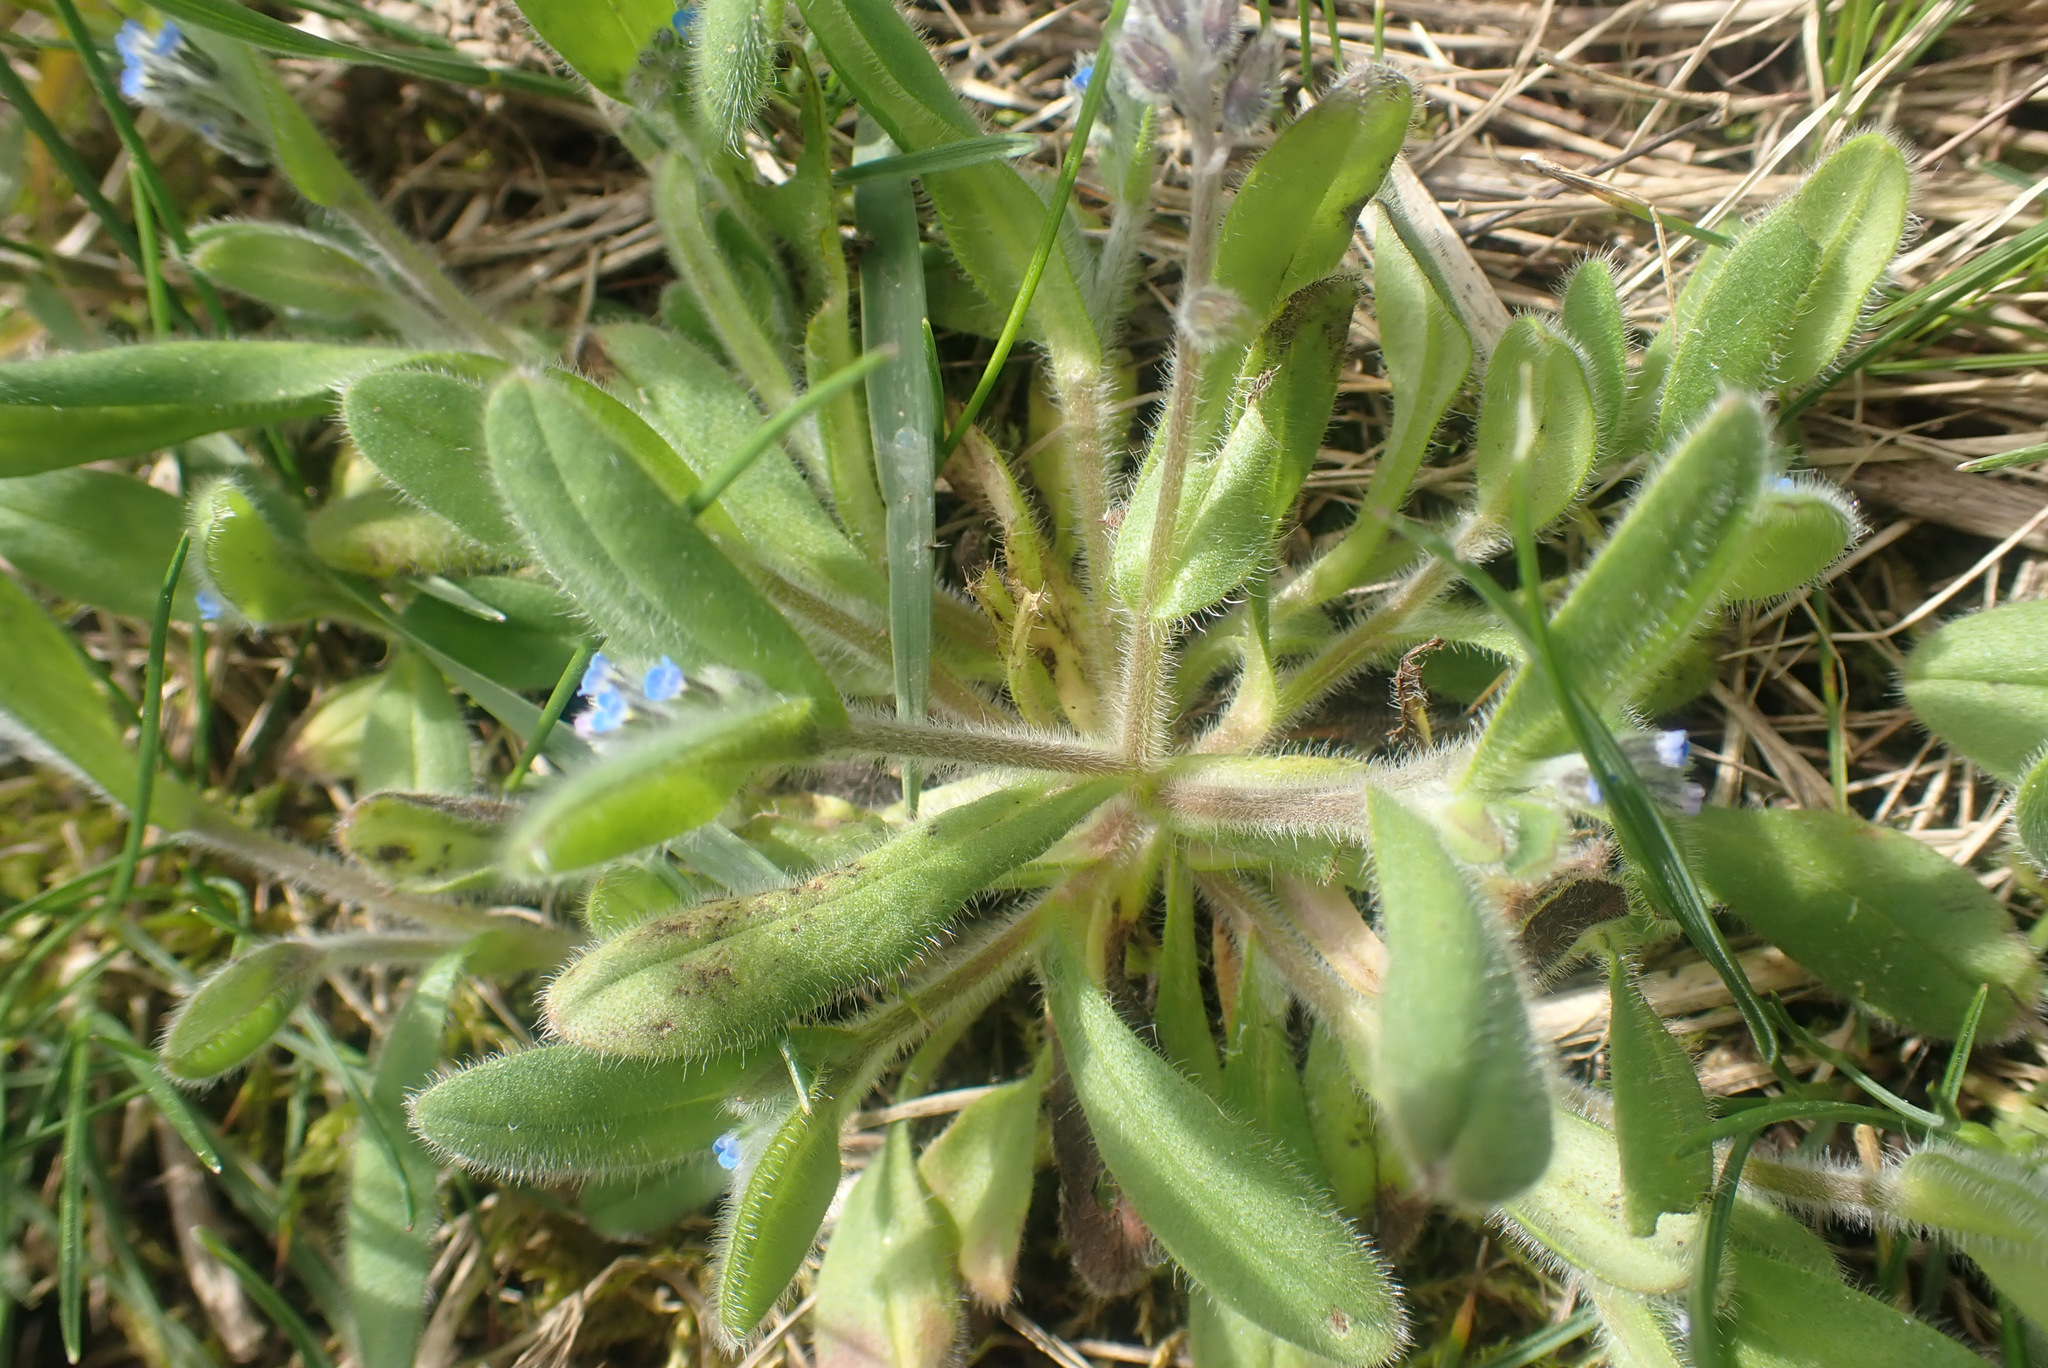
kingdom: Plantae
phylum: Tracheophyta
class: Magnoliopsida
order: Boraginales
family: Boraginaceae
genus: Myosotis
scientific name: Myosotis arvensis
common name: Field forget-me-not
